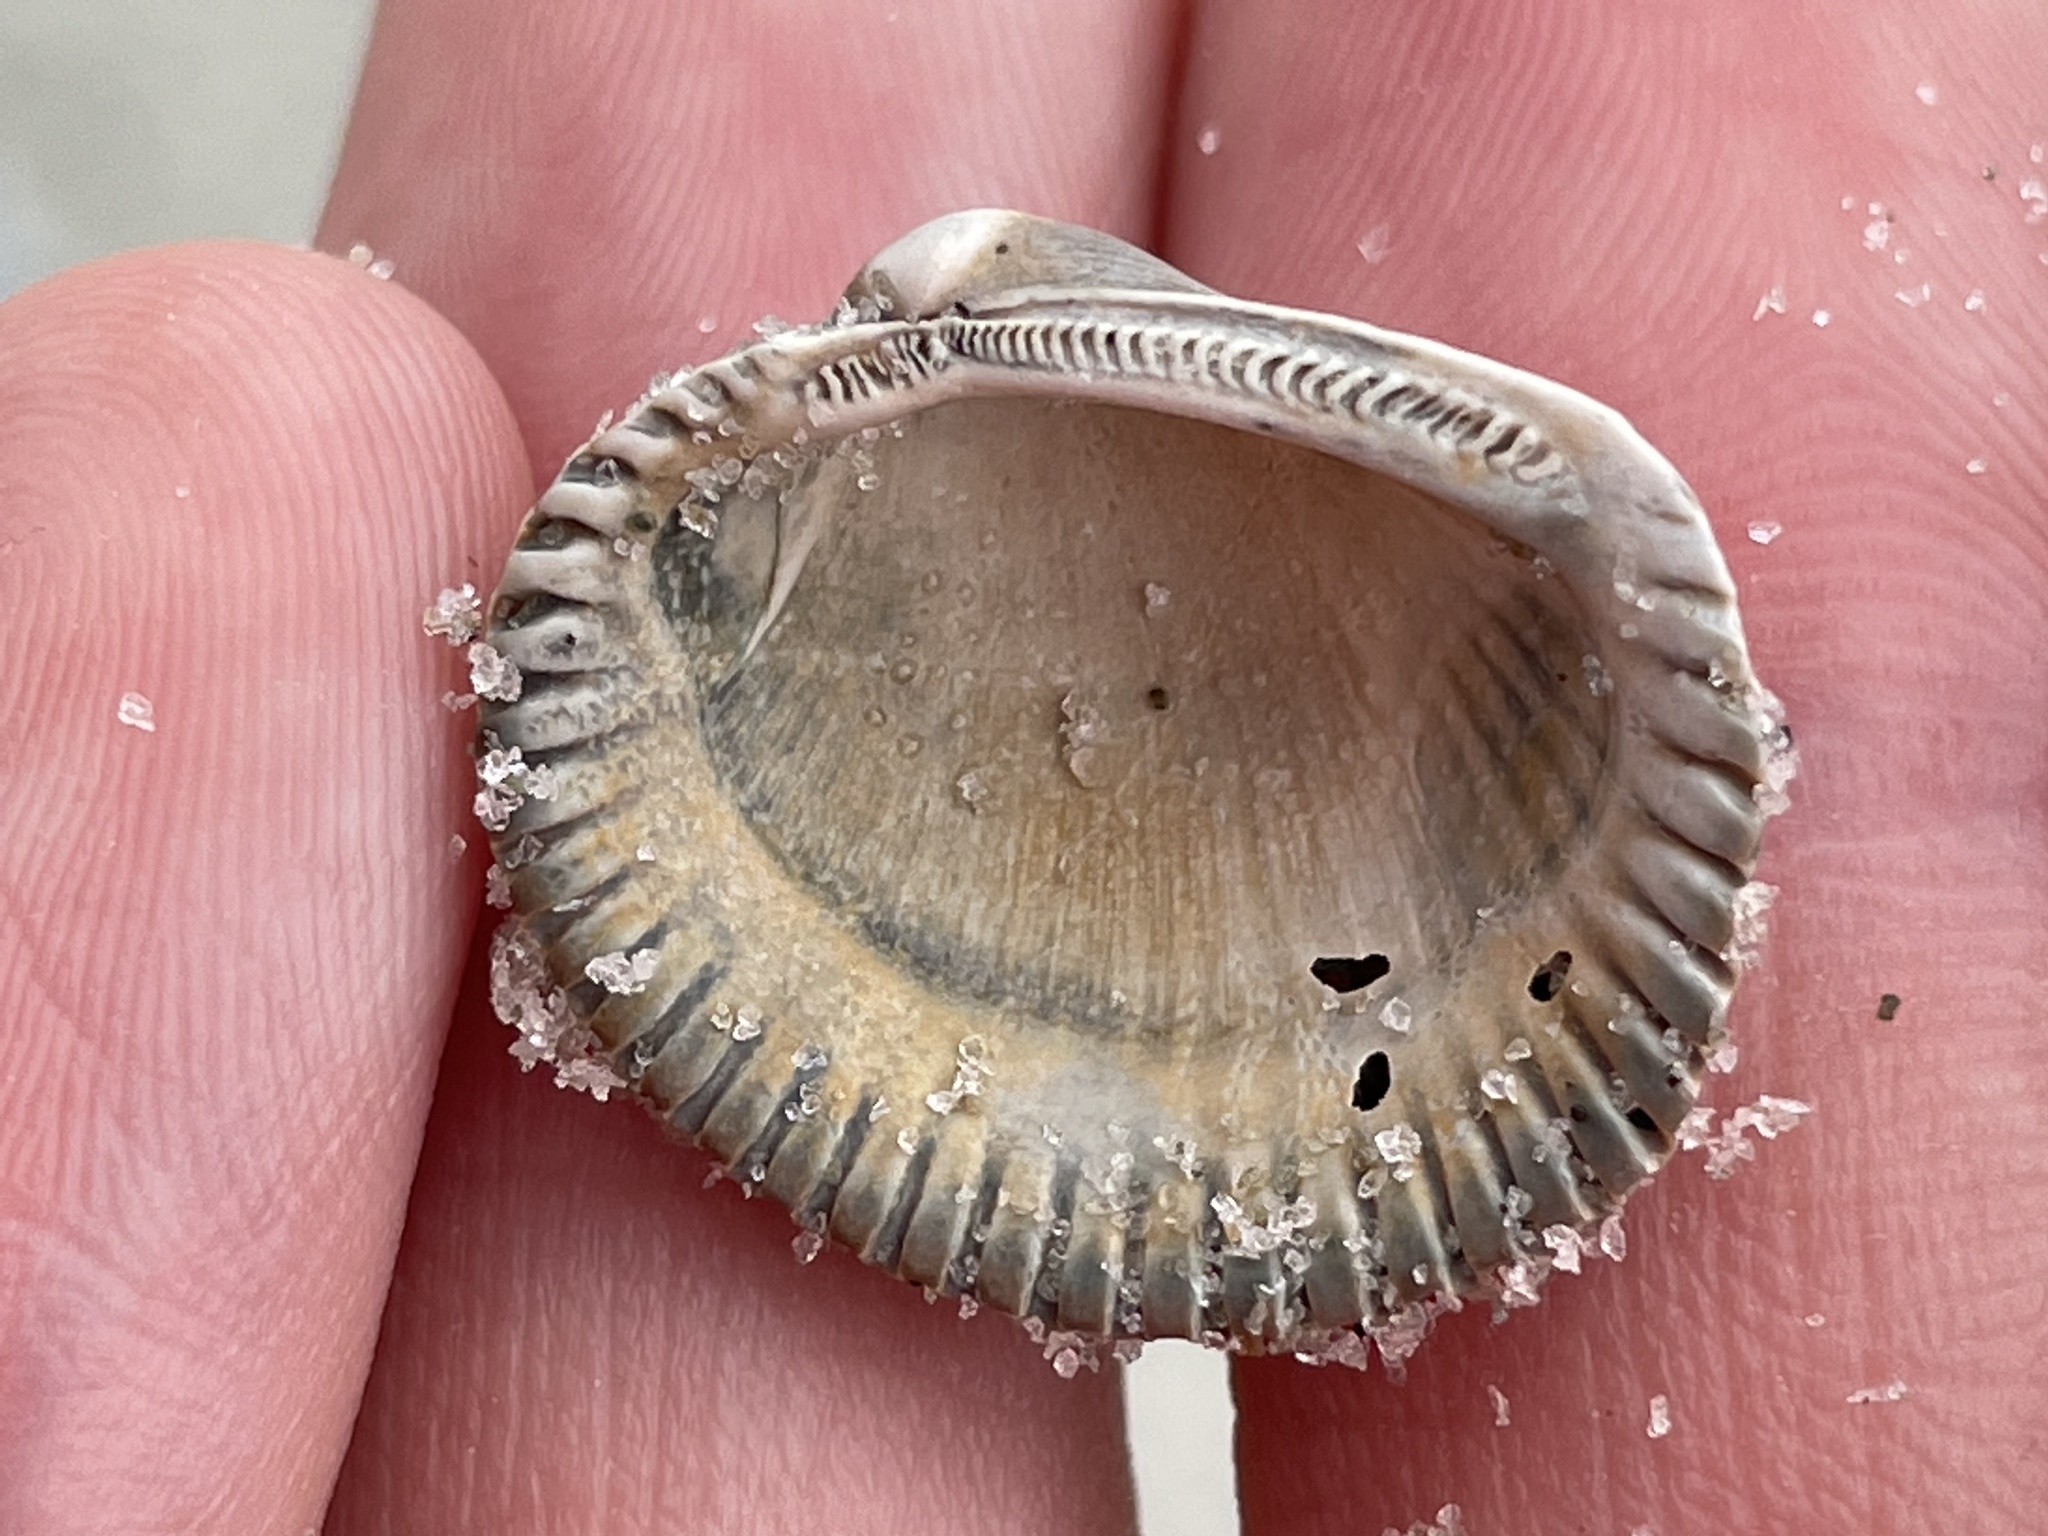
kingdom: Animalia
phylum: Mollusca
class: Bivalvia
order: Arcida
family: Arcidae
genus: Lunarca
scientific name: Lunarca ovalis
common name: Blood ark
